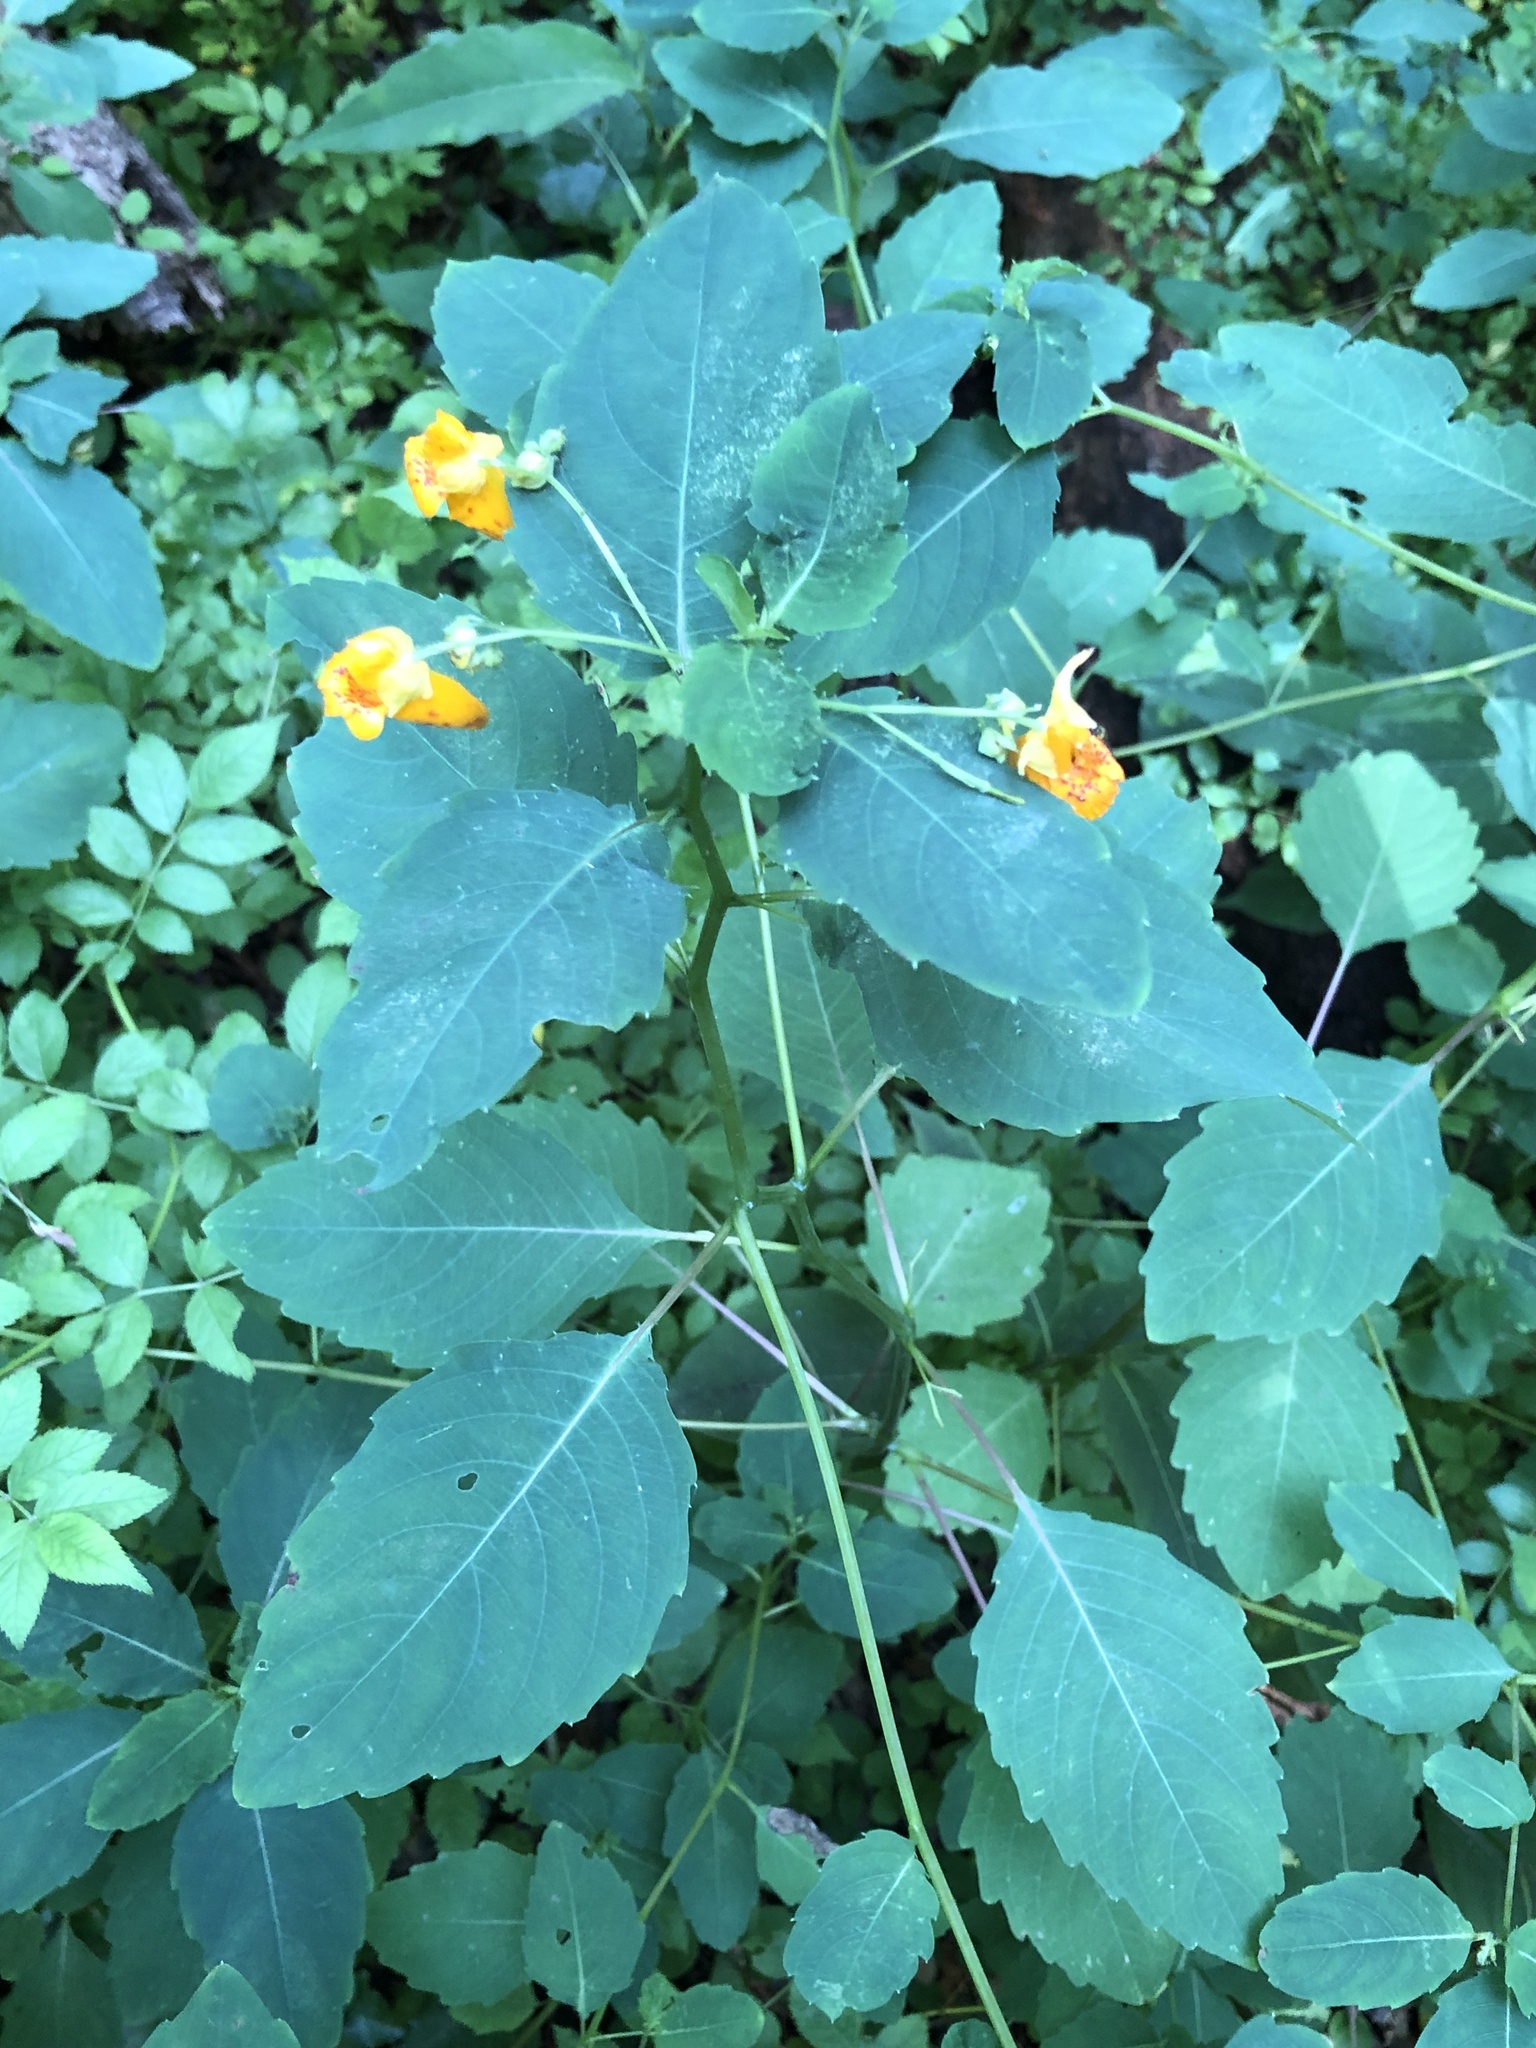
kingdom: Plantae
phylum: Tracheophyta
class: Magnoliopsida
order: Ericales
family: Balsaminaceae
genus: Impatiens
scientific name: Impatiens capensis
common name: Orange balsam
